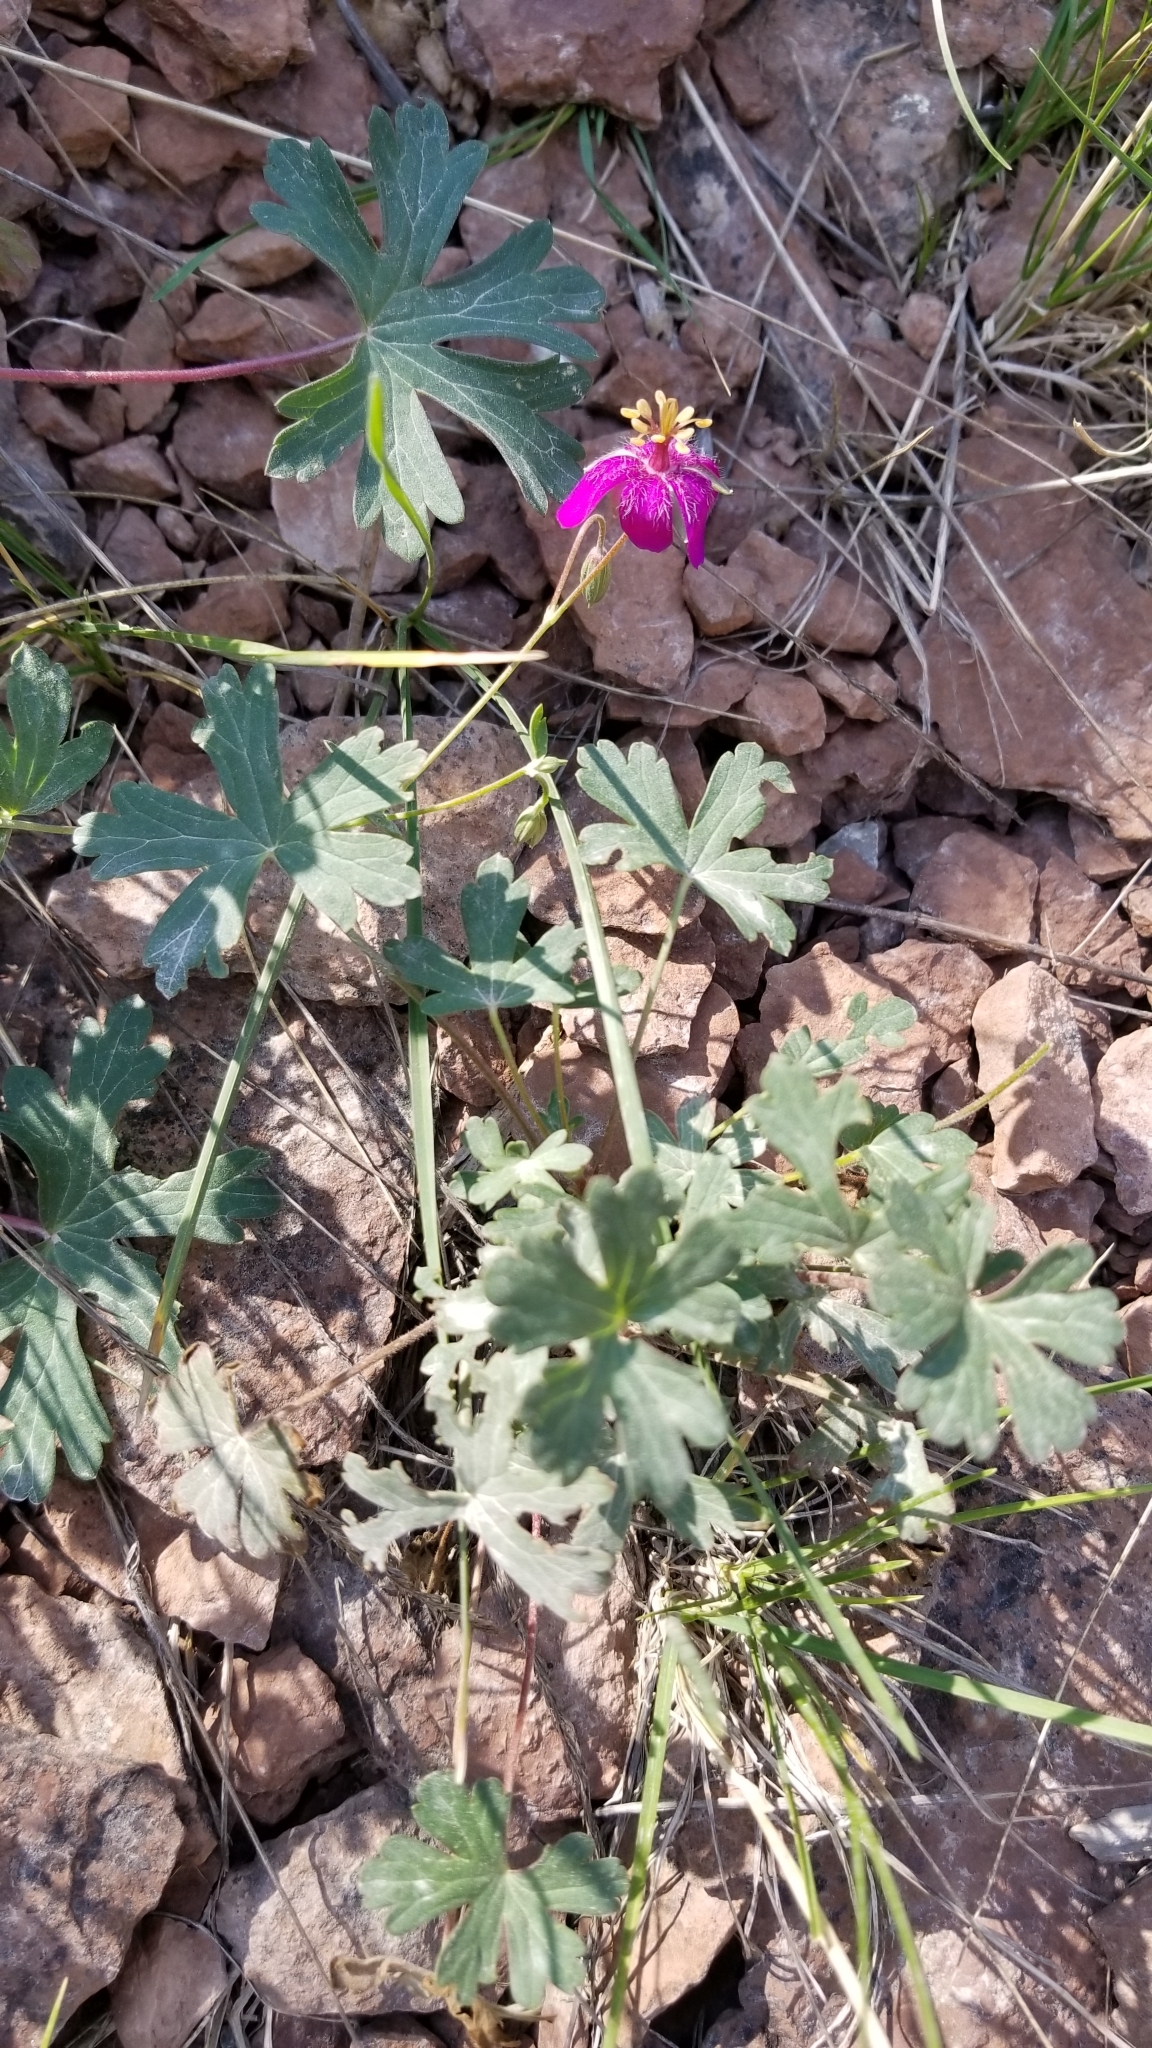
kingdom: Plantae
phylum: Tracheophyta
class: Magnoliopsida
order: Geraniales
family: Geraniaceae
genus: Geranium
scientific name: Geranium caespitosum
